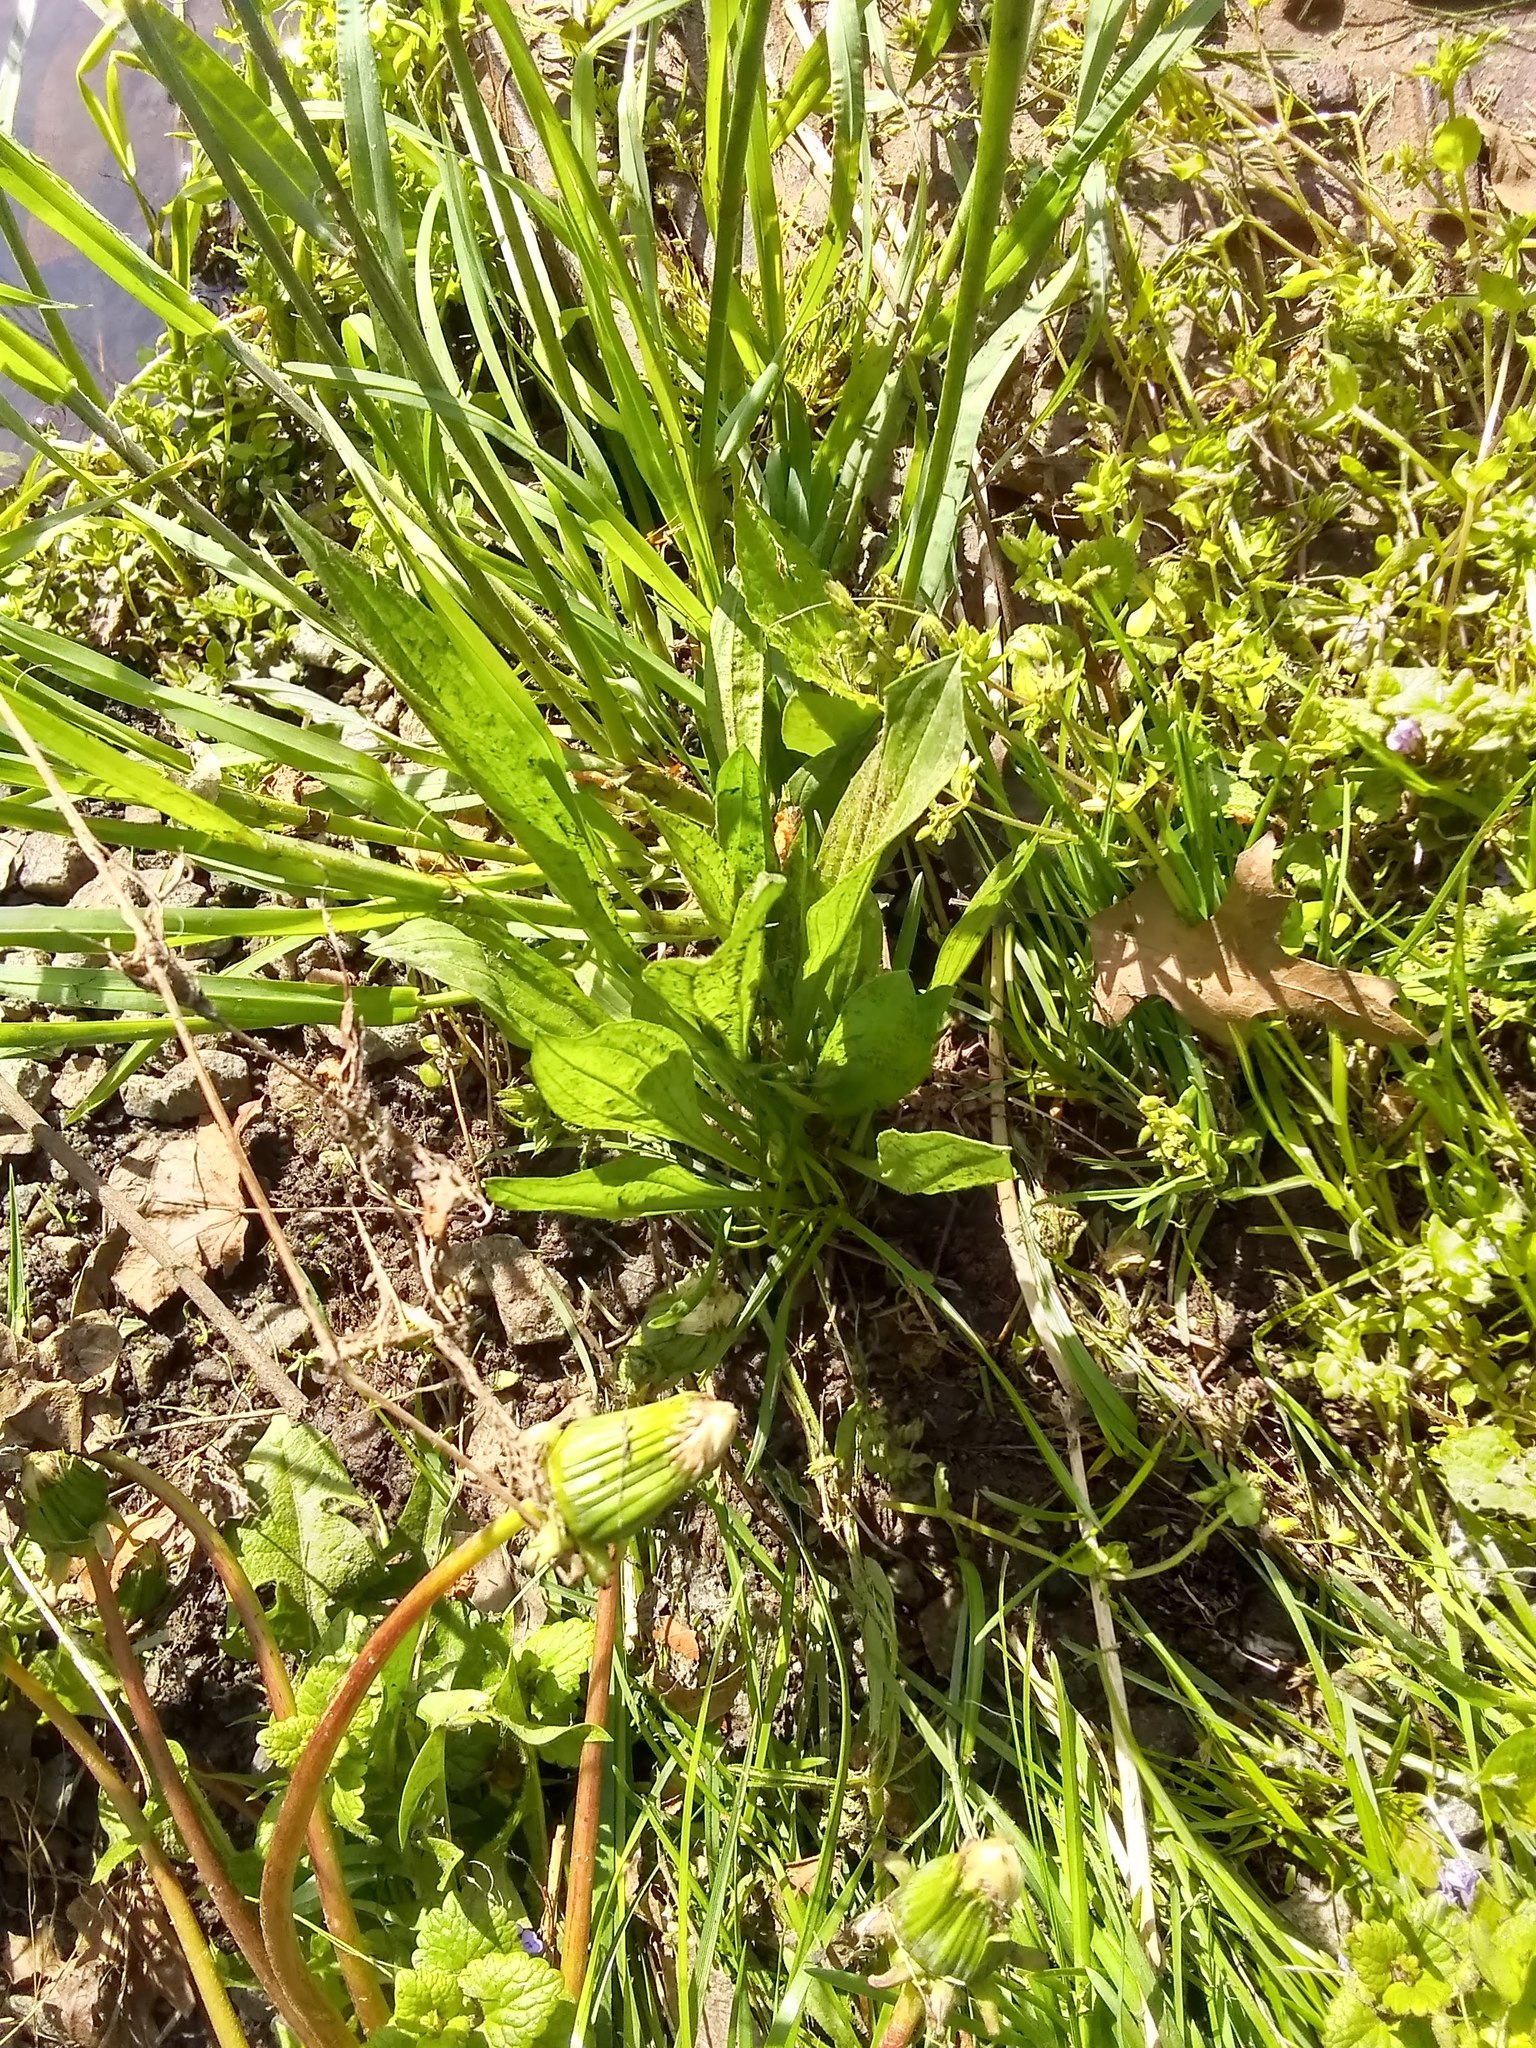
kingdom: Plantae
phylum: Tracheophyta
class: Magnoliopsida
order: Lamiales
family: Plantaginaceae
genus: Plantago
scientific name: Plantago lanceolata
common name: Ribwort plantain
